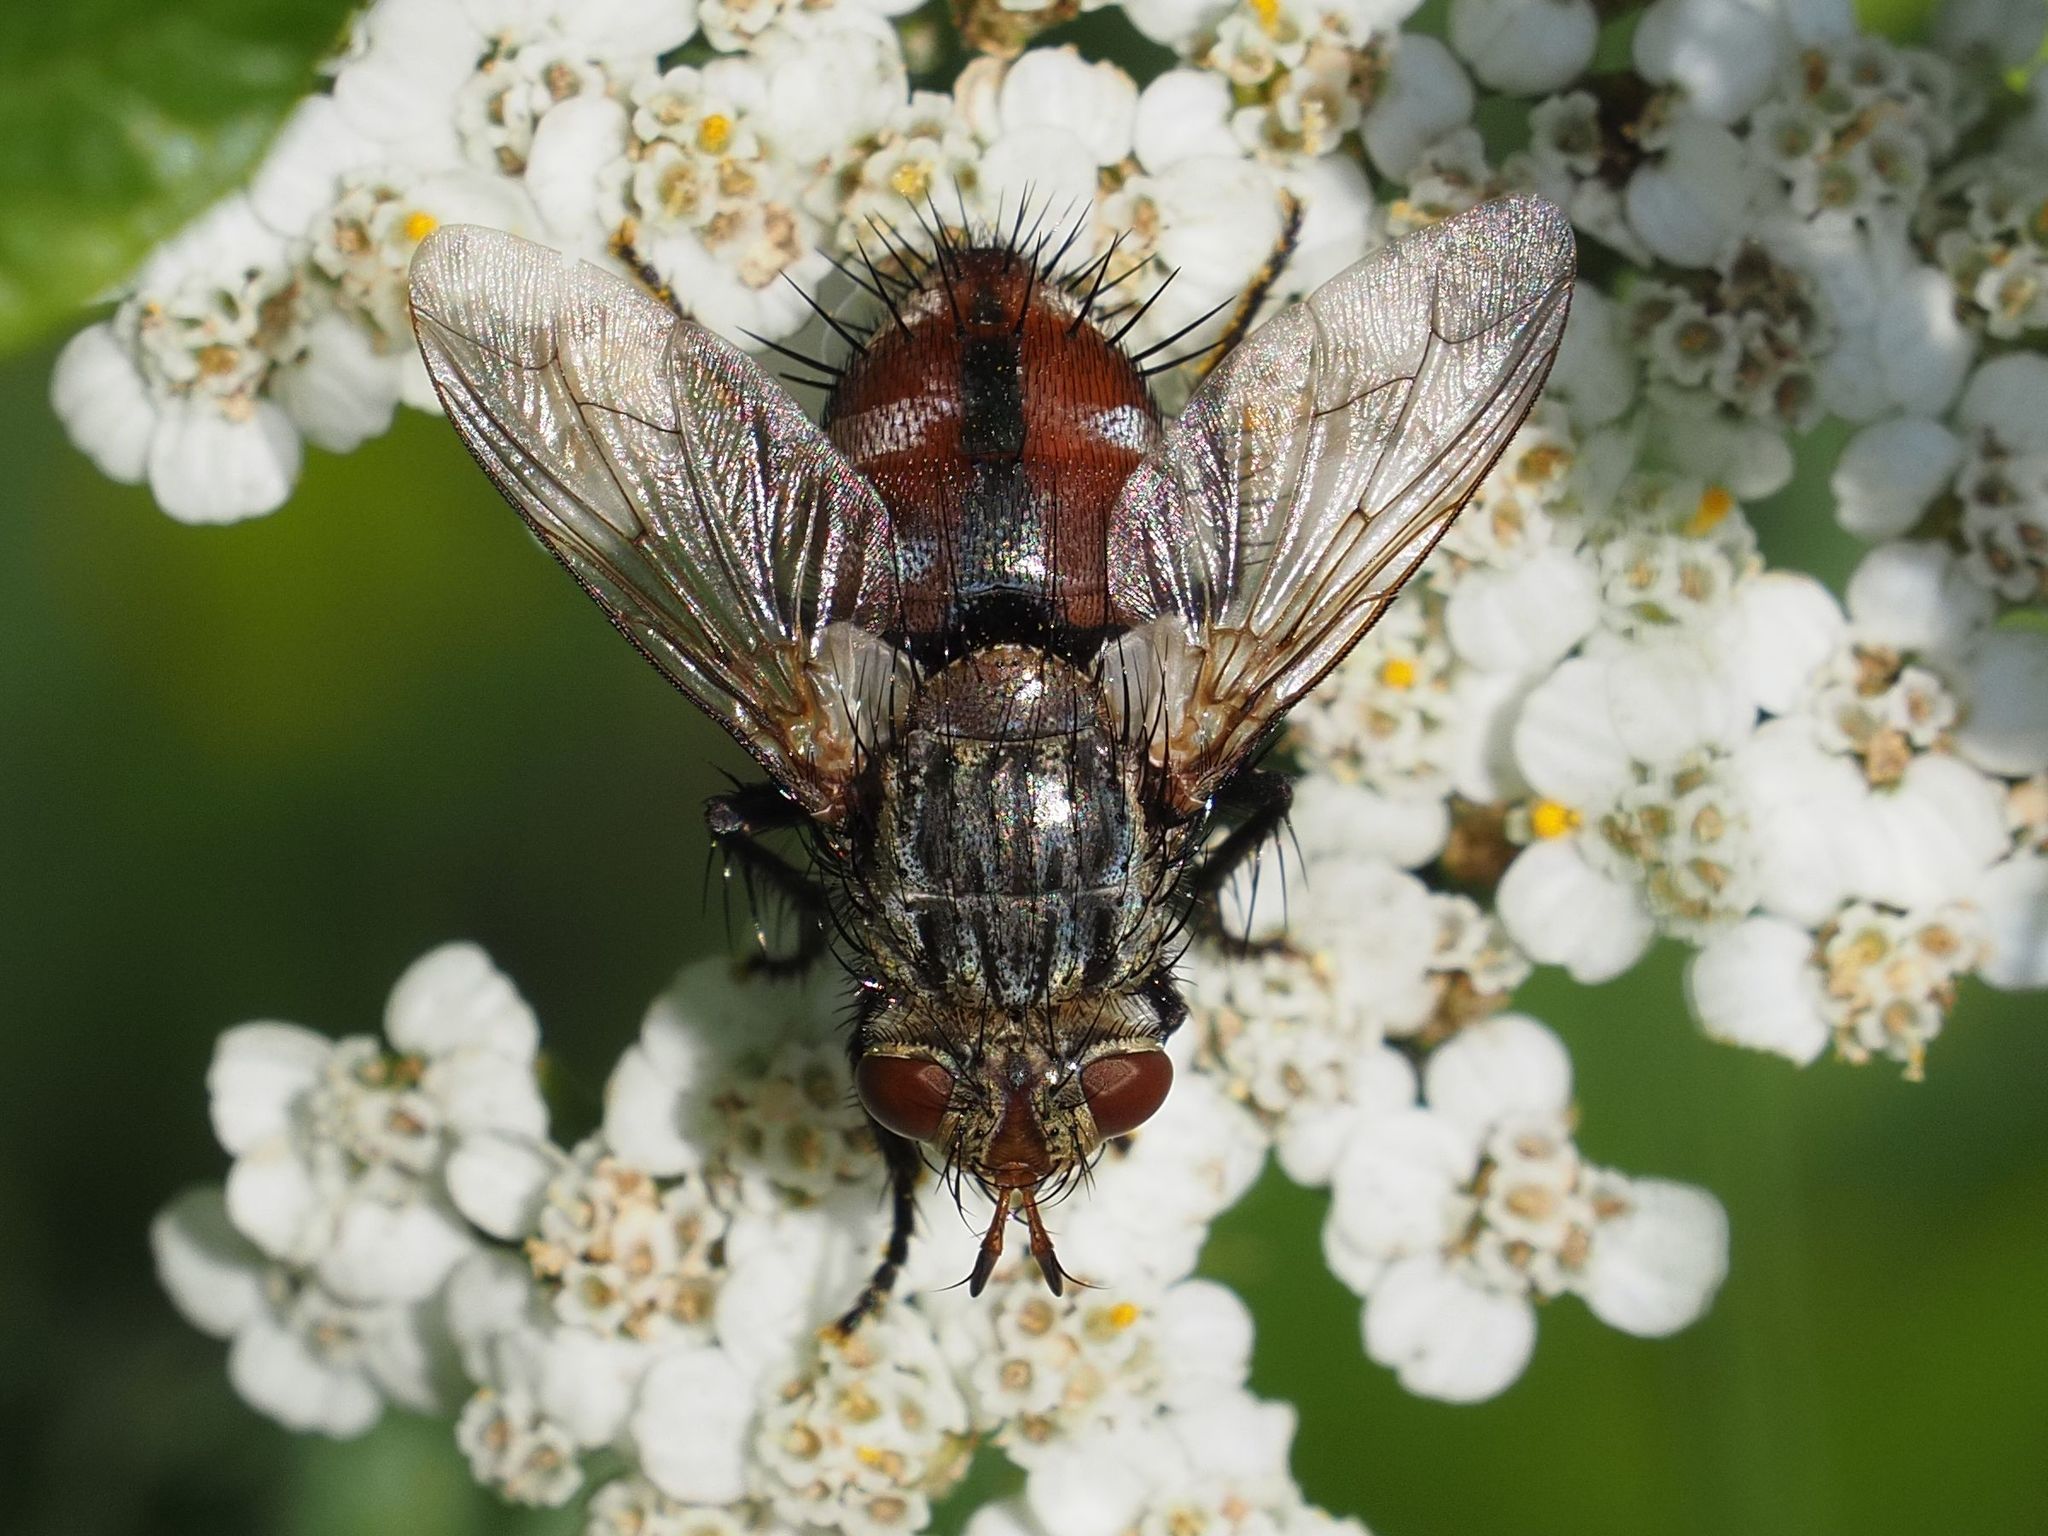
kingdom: Animalia
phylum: Arthropoda
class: Insecta
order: Diptera
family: Tachinidae
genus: Peleteria
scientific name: Peleteria javana
